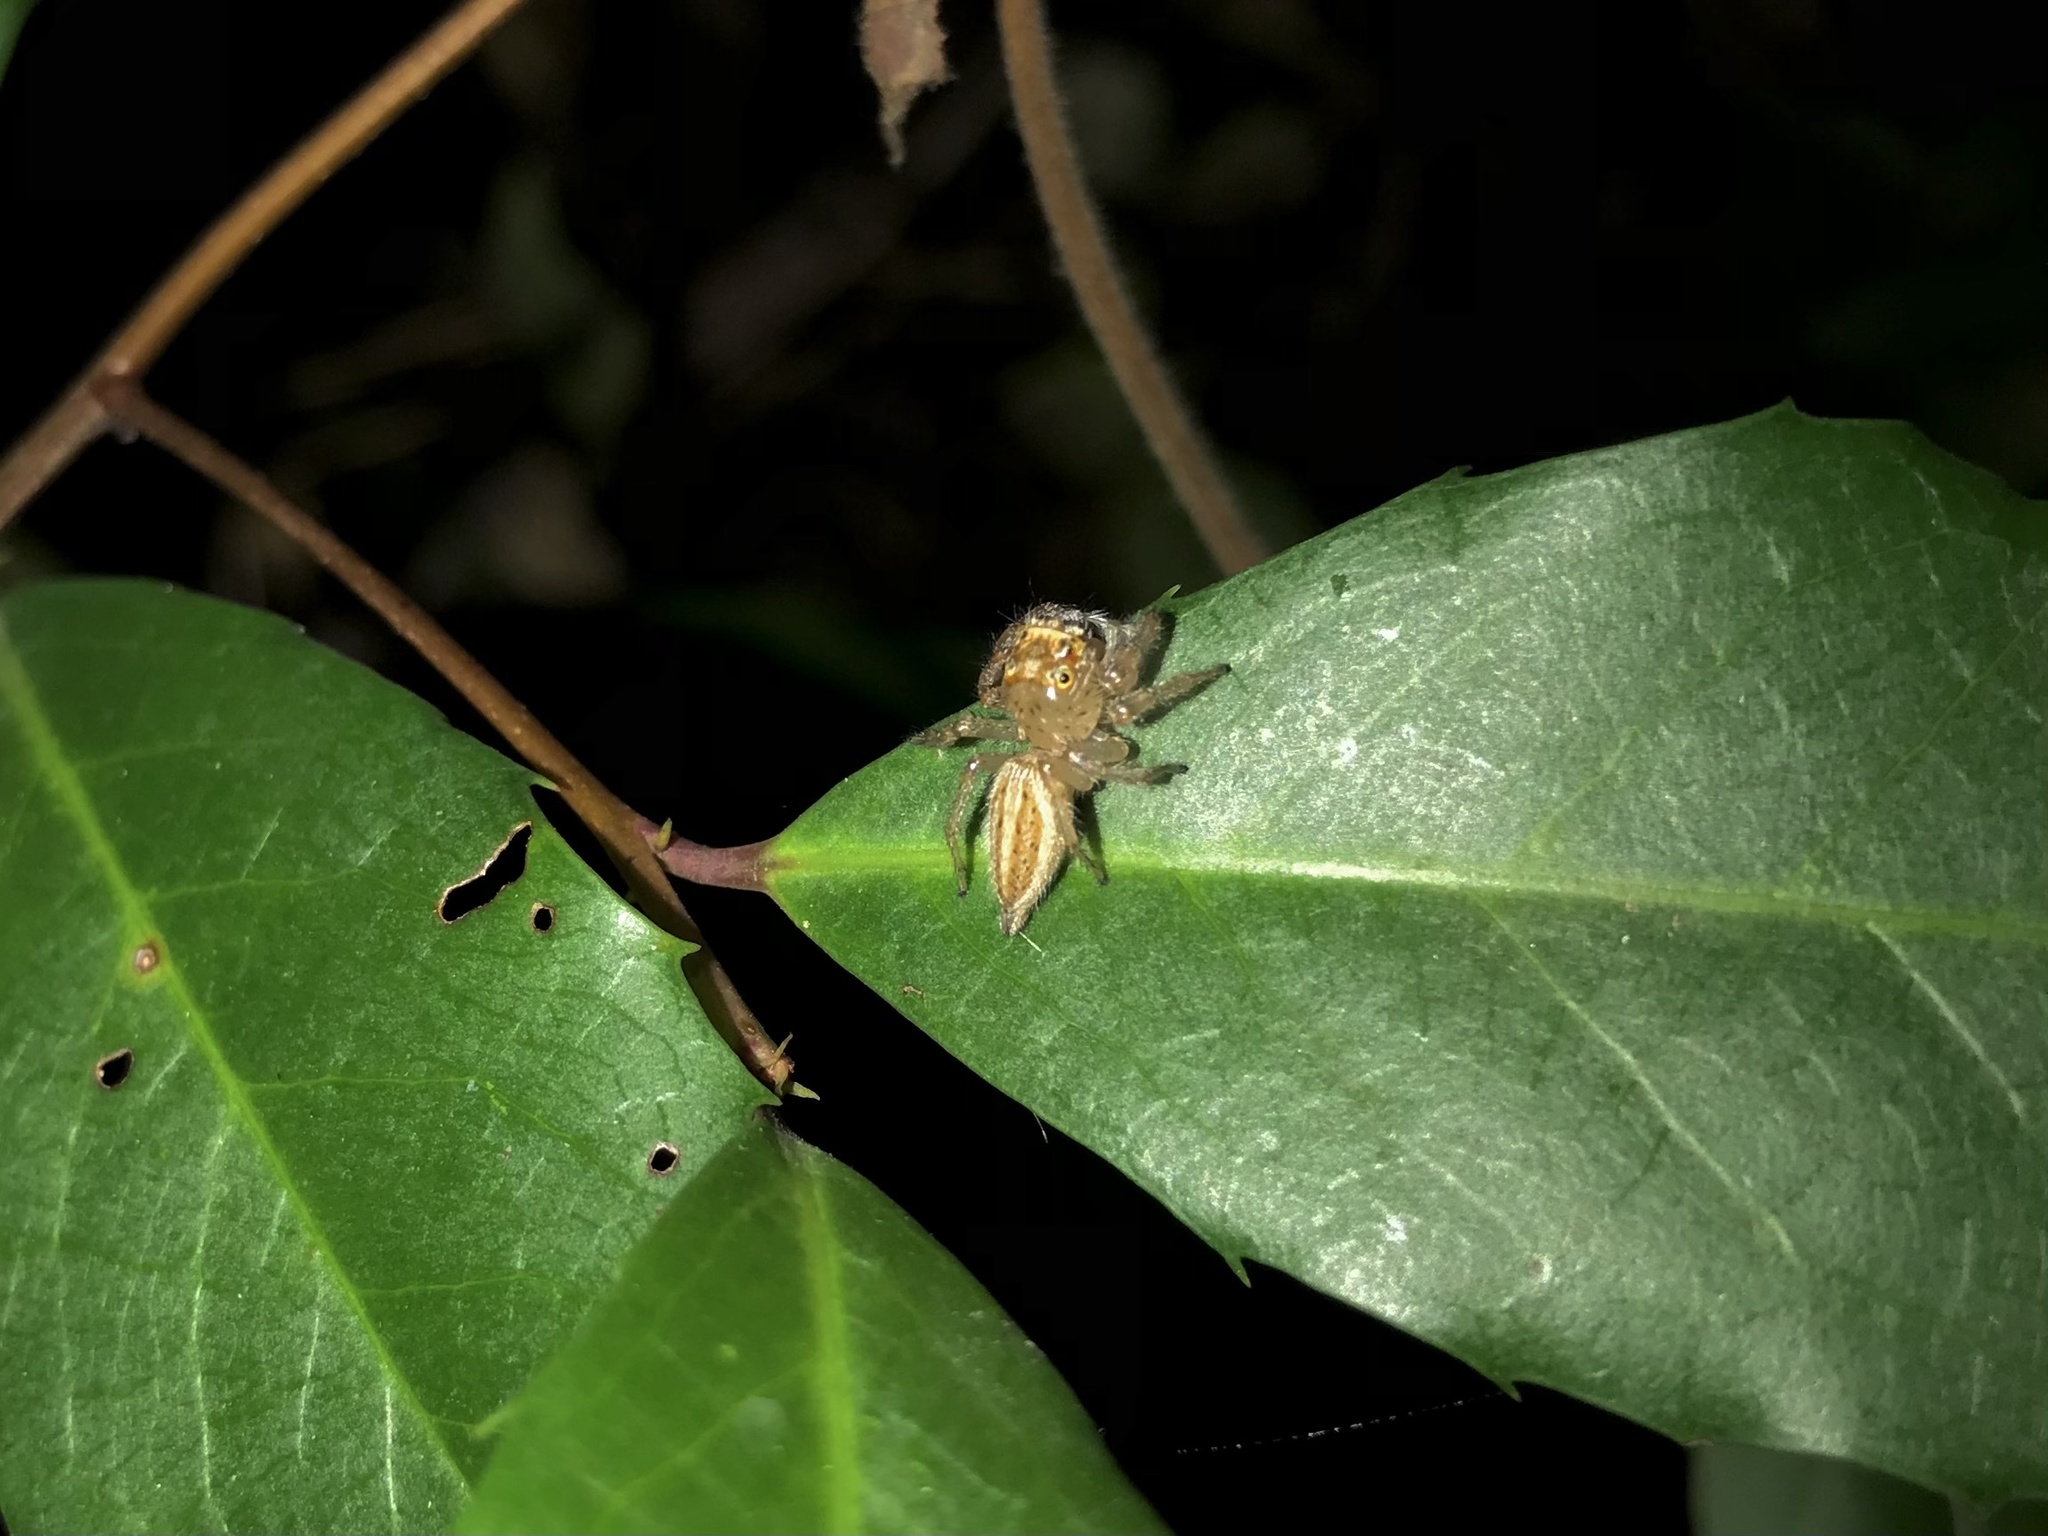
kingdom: Animalia
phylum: Arthropoda
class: Arachnida
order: Araneae
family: Salticidae
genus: Colonus
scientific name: Colonus sylvanus
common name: Jumping spiders
